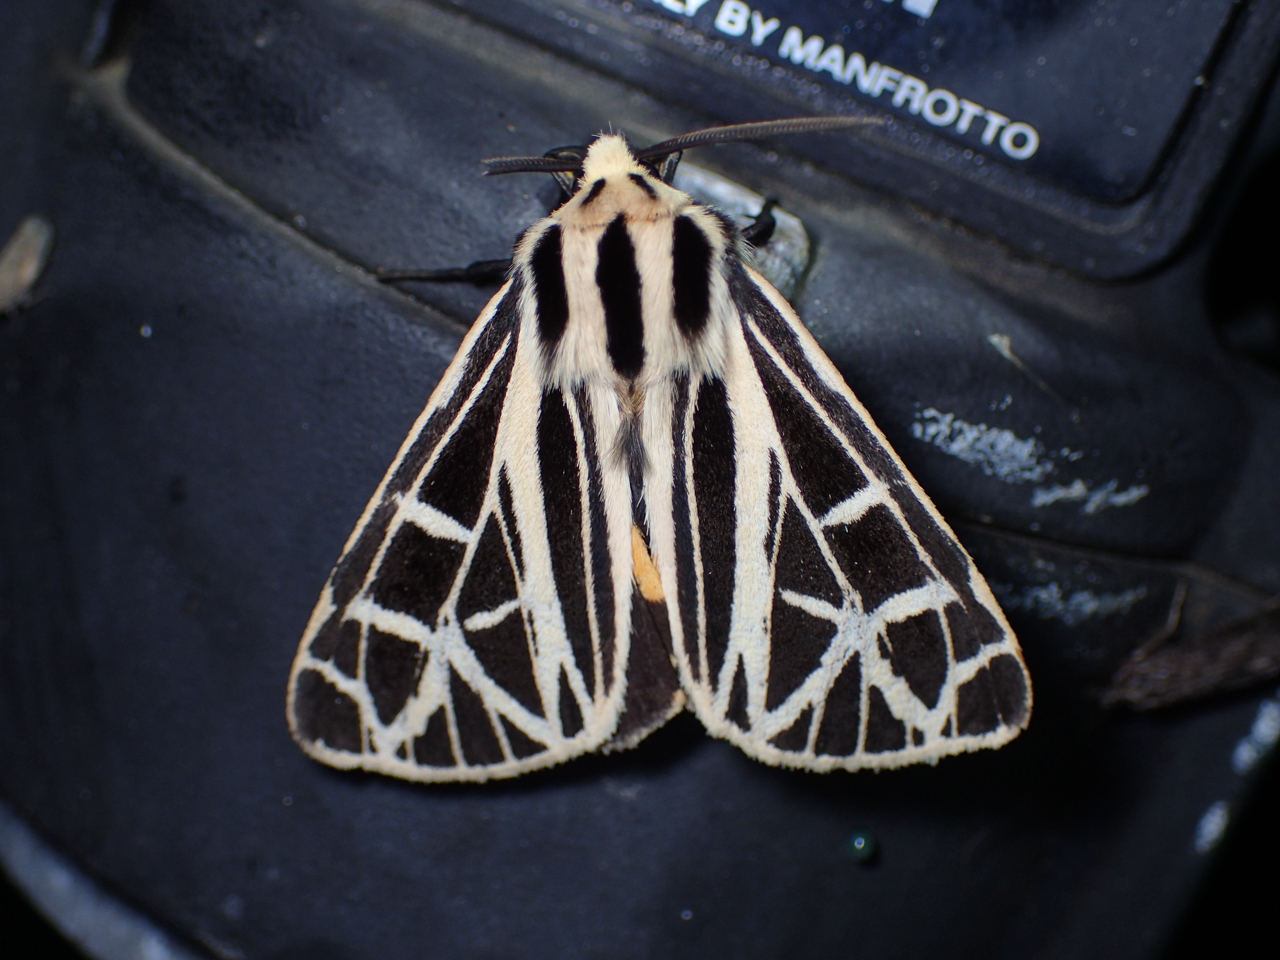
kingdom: Animalia
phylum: Arthropoda
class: Insecta
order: Lepidoptera
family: Erebidae
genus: Apantesis
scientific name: Apantesis
